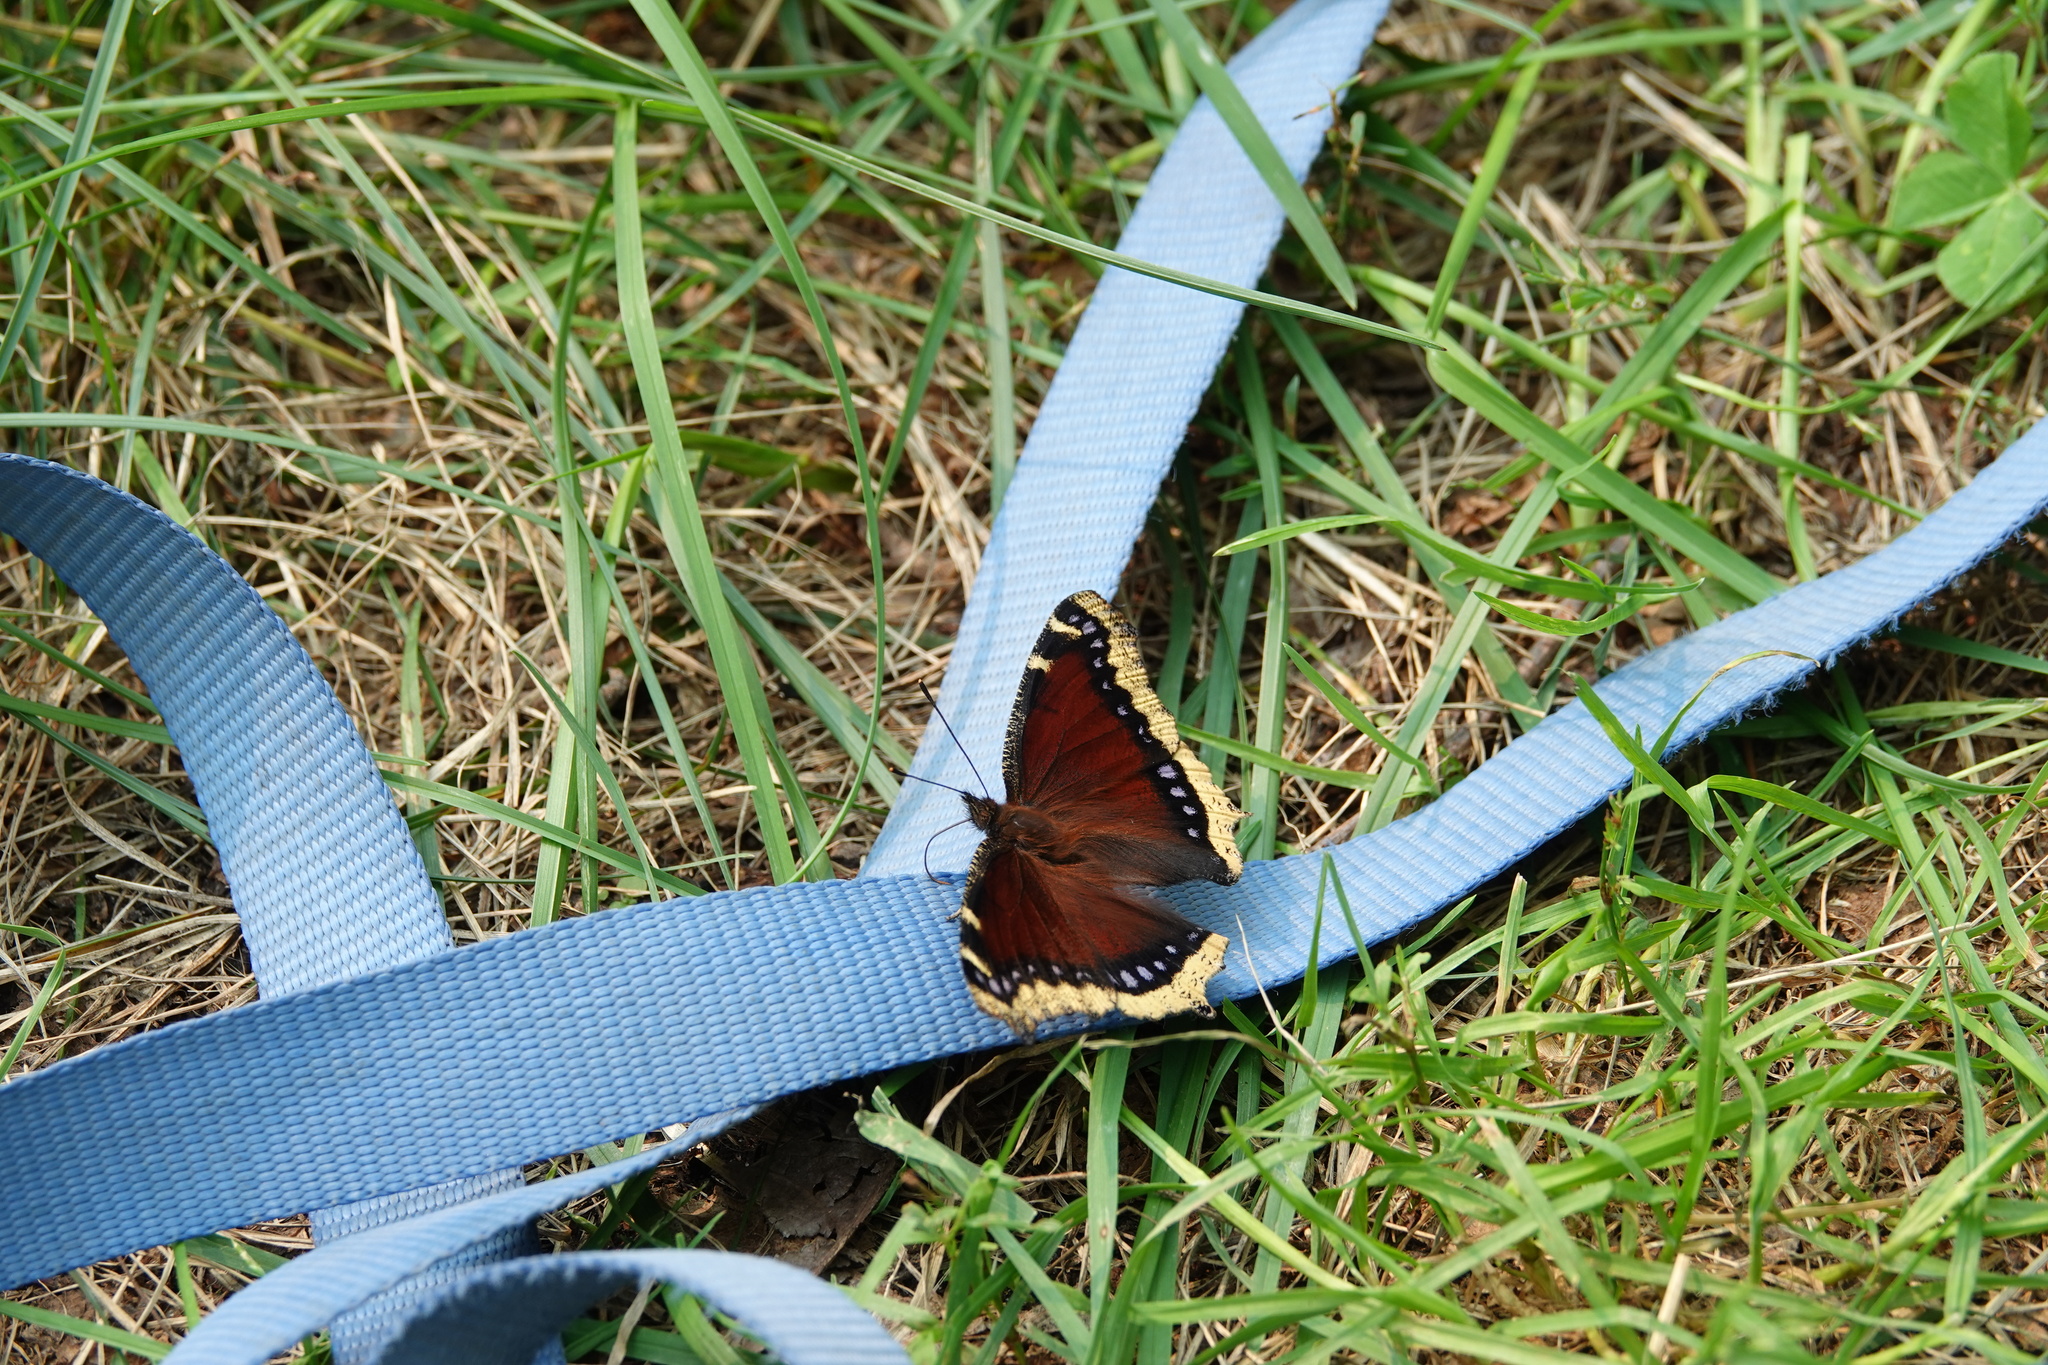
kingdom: Animalia
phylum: Arthropoda
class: Insecta
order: Lepidoptera
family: Nymphalidae
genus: Nymphalis
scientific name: Nymphalis antiopa
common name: Camberwell beauty
